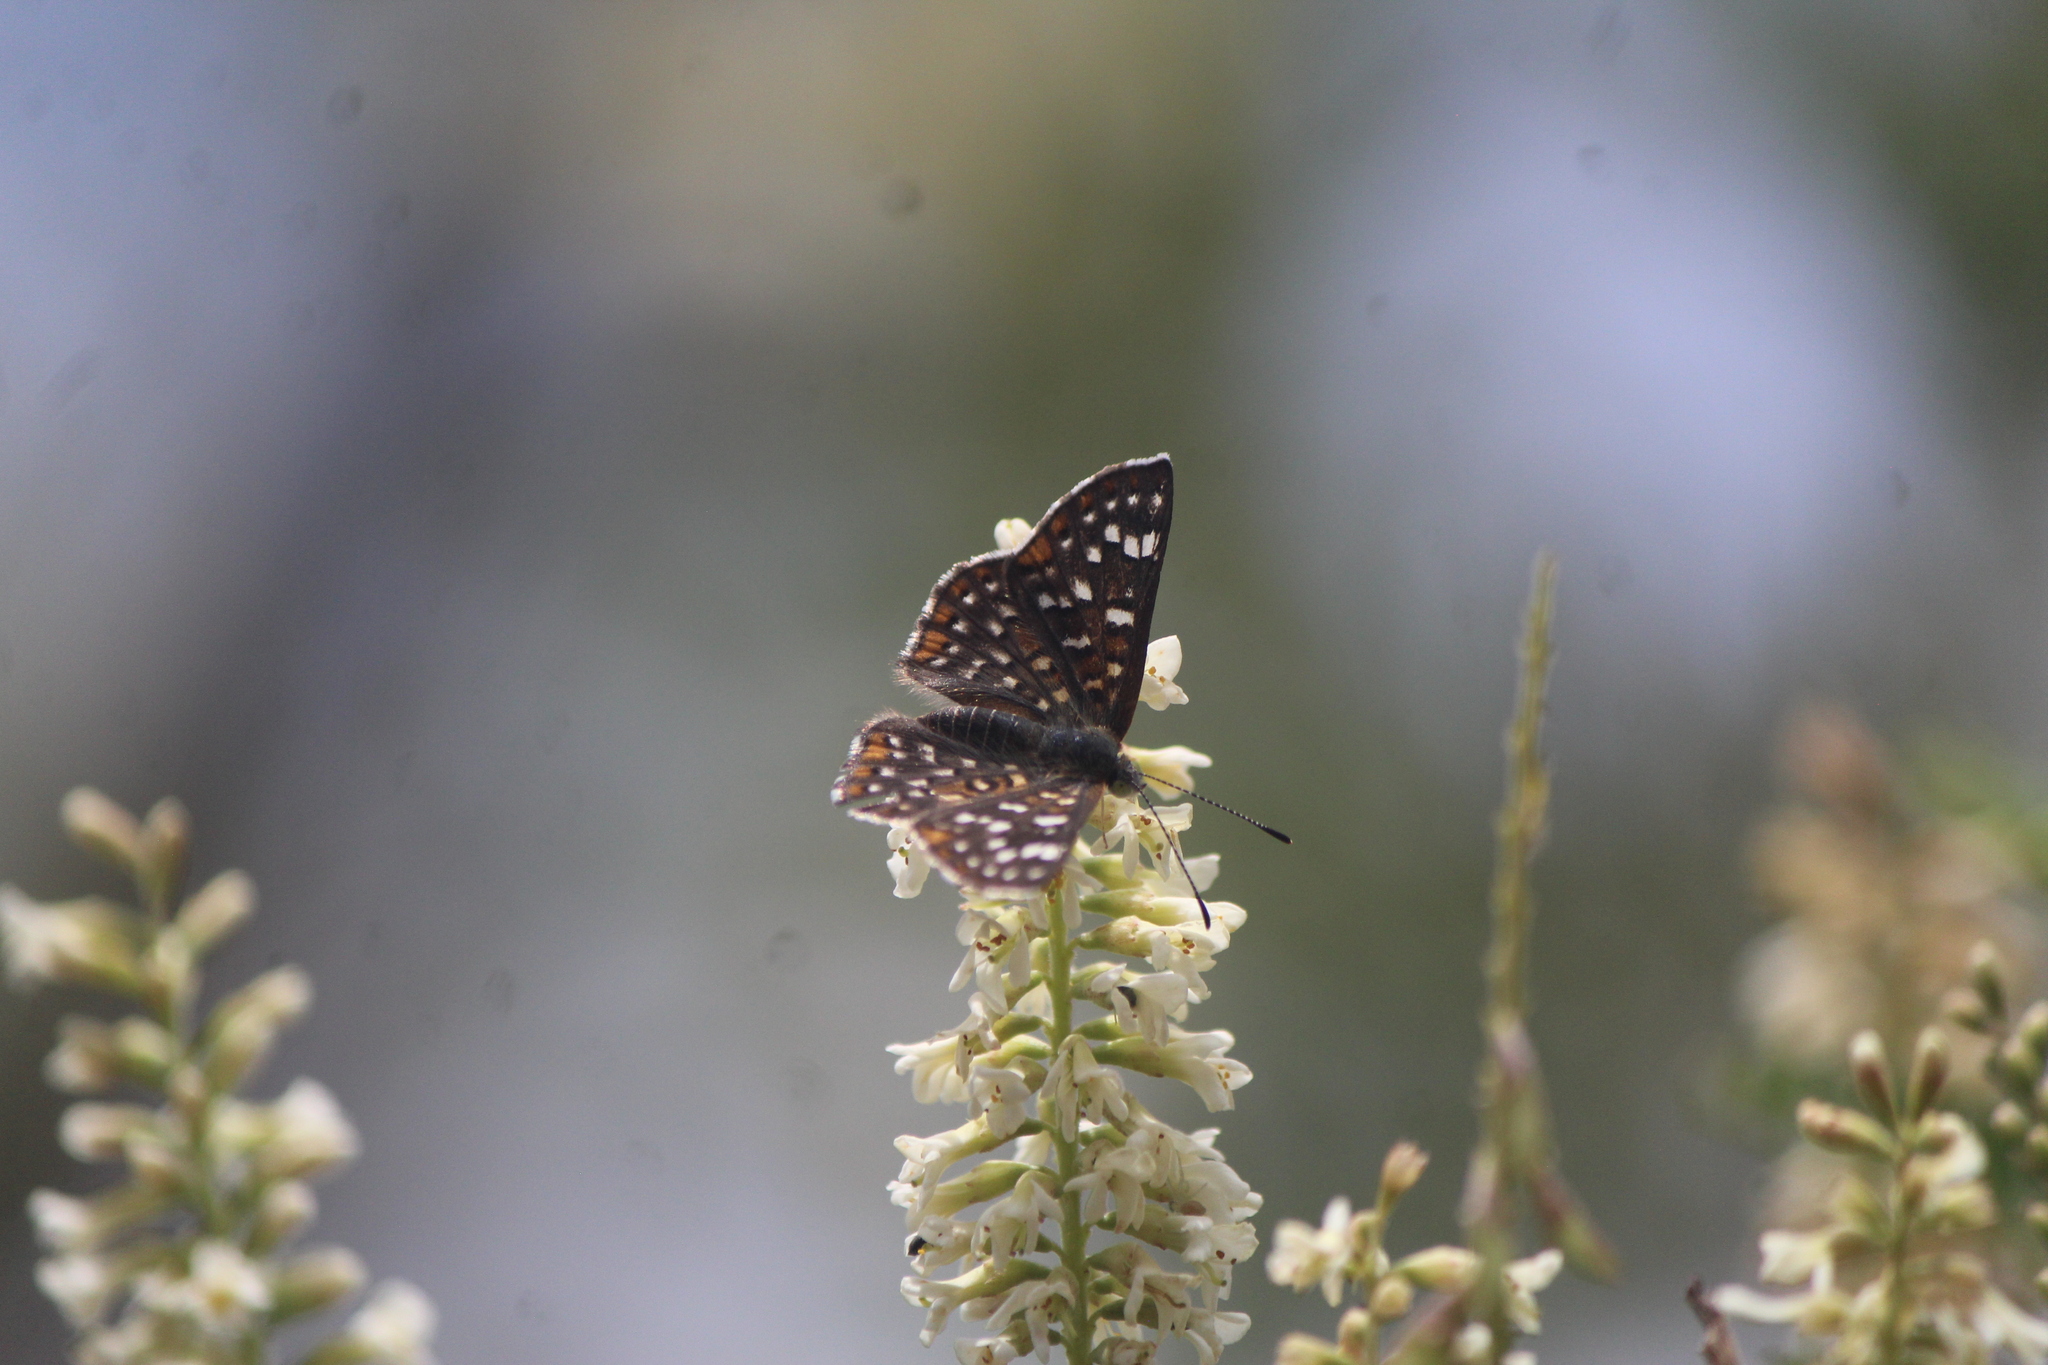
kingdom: Animalia
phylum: Arthropoda
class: Insecta
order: Lepidoptera
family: Riodinidae
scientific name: Riodinidae
